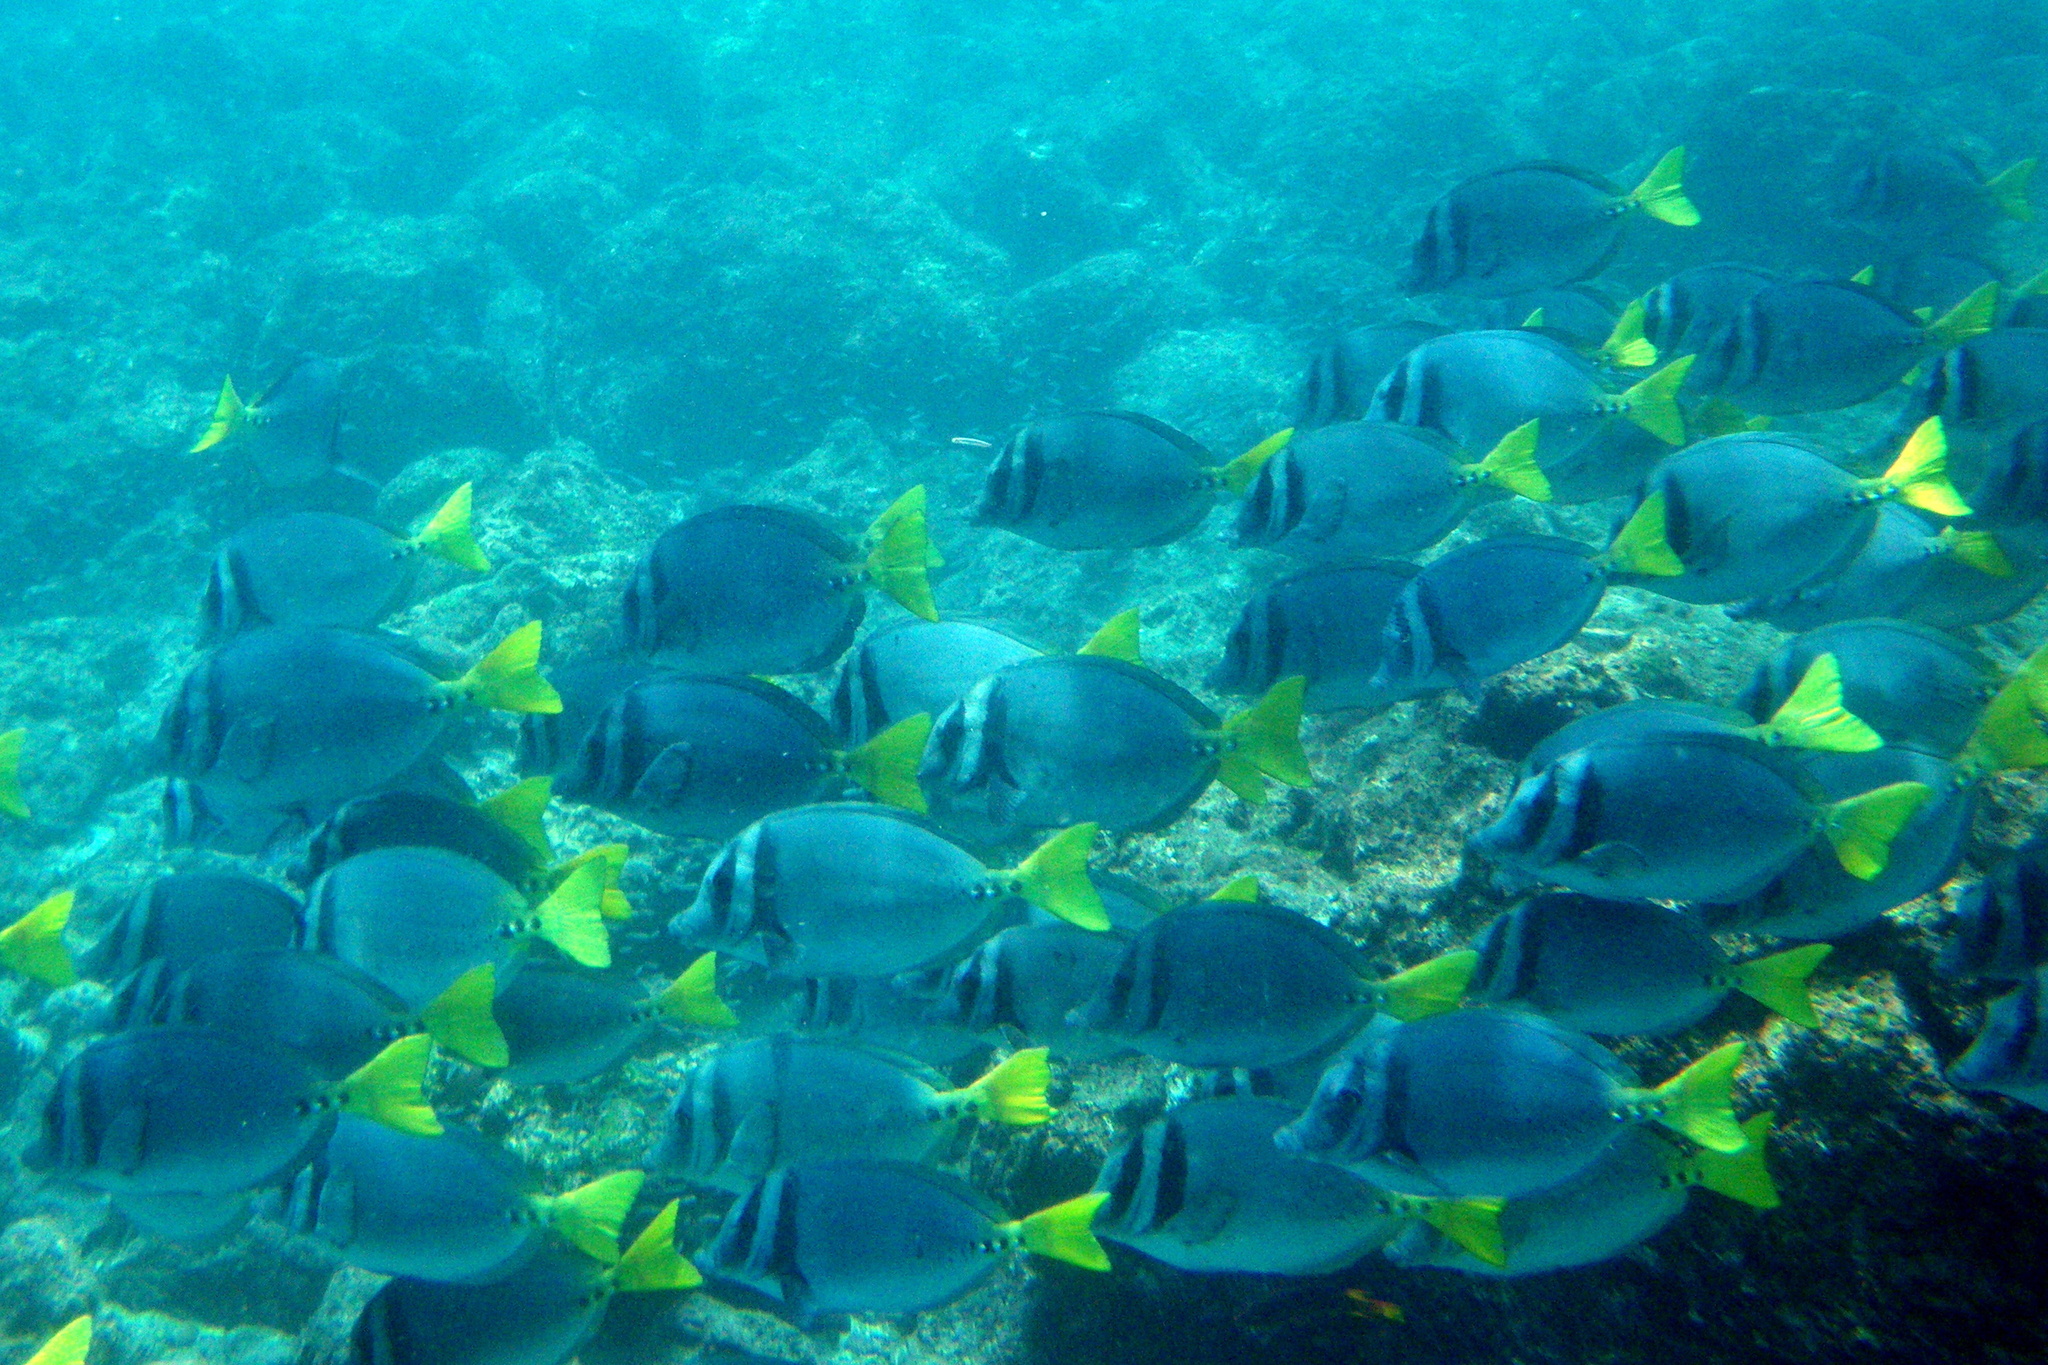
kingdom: Animalia
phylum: Chordata
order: Perciformes
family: Acanthuridae
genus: Prionurus
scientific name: Prionurus laticlavius
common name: Razor surgeonfish
